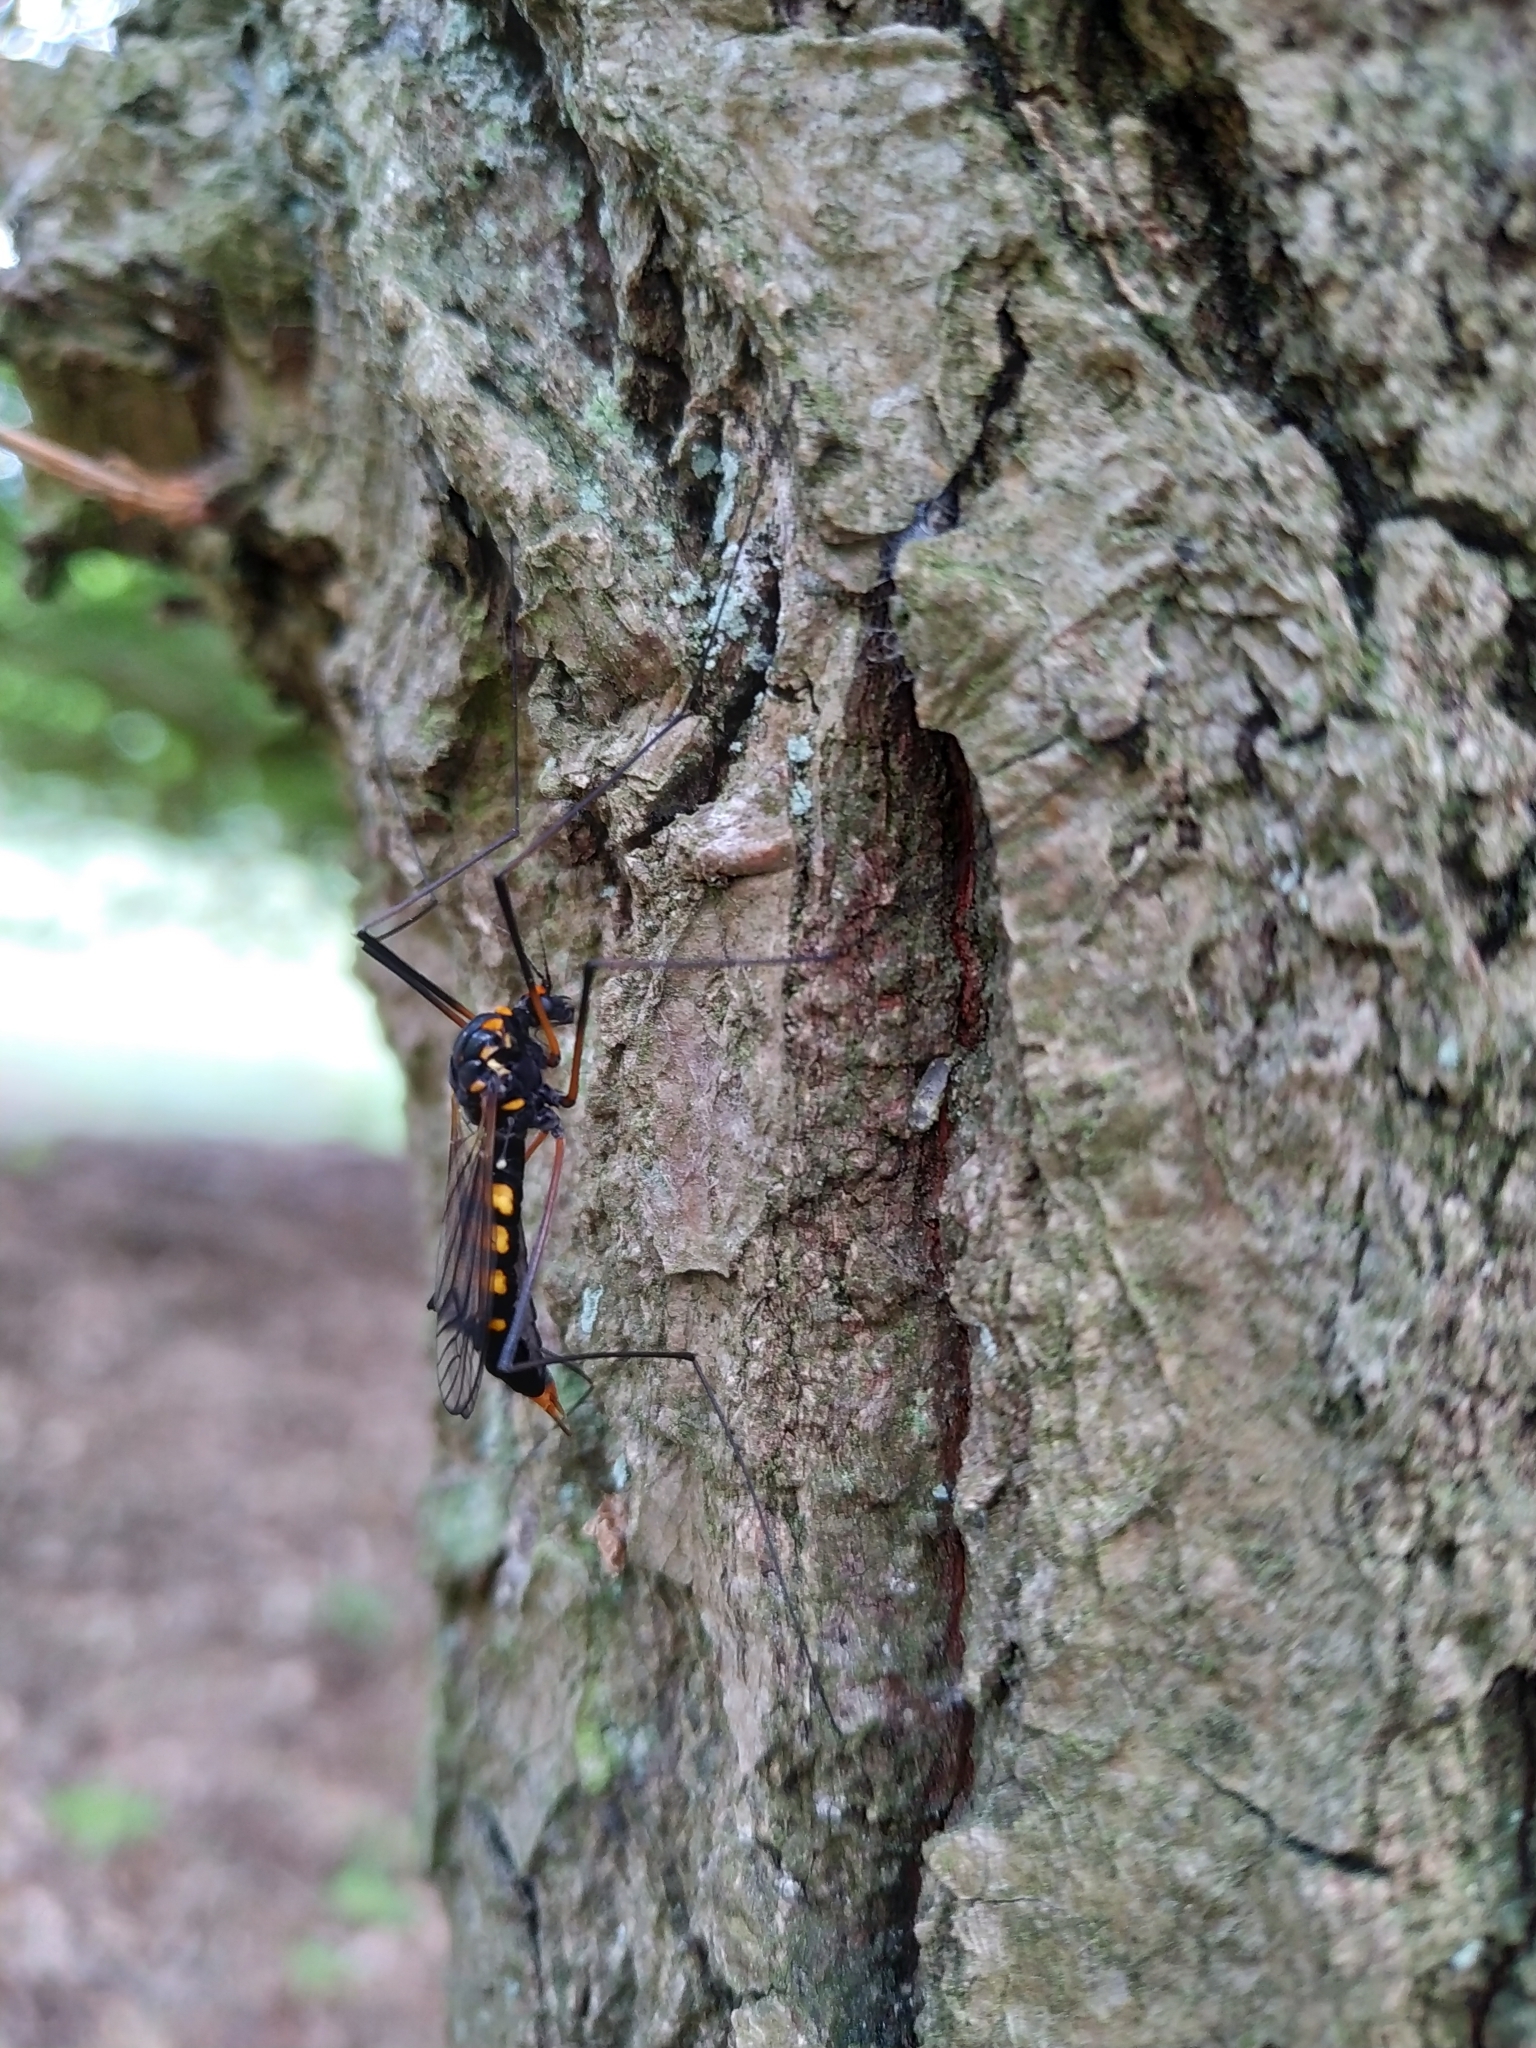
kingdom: Animalia
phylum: Arthropoda
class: Insecta
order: Diptera
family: Tipulidae
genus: Nephrotoma
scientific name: Nephrotoma crocata
